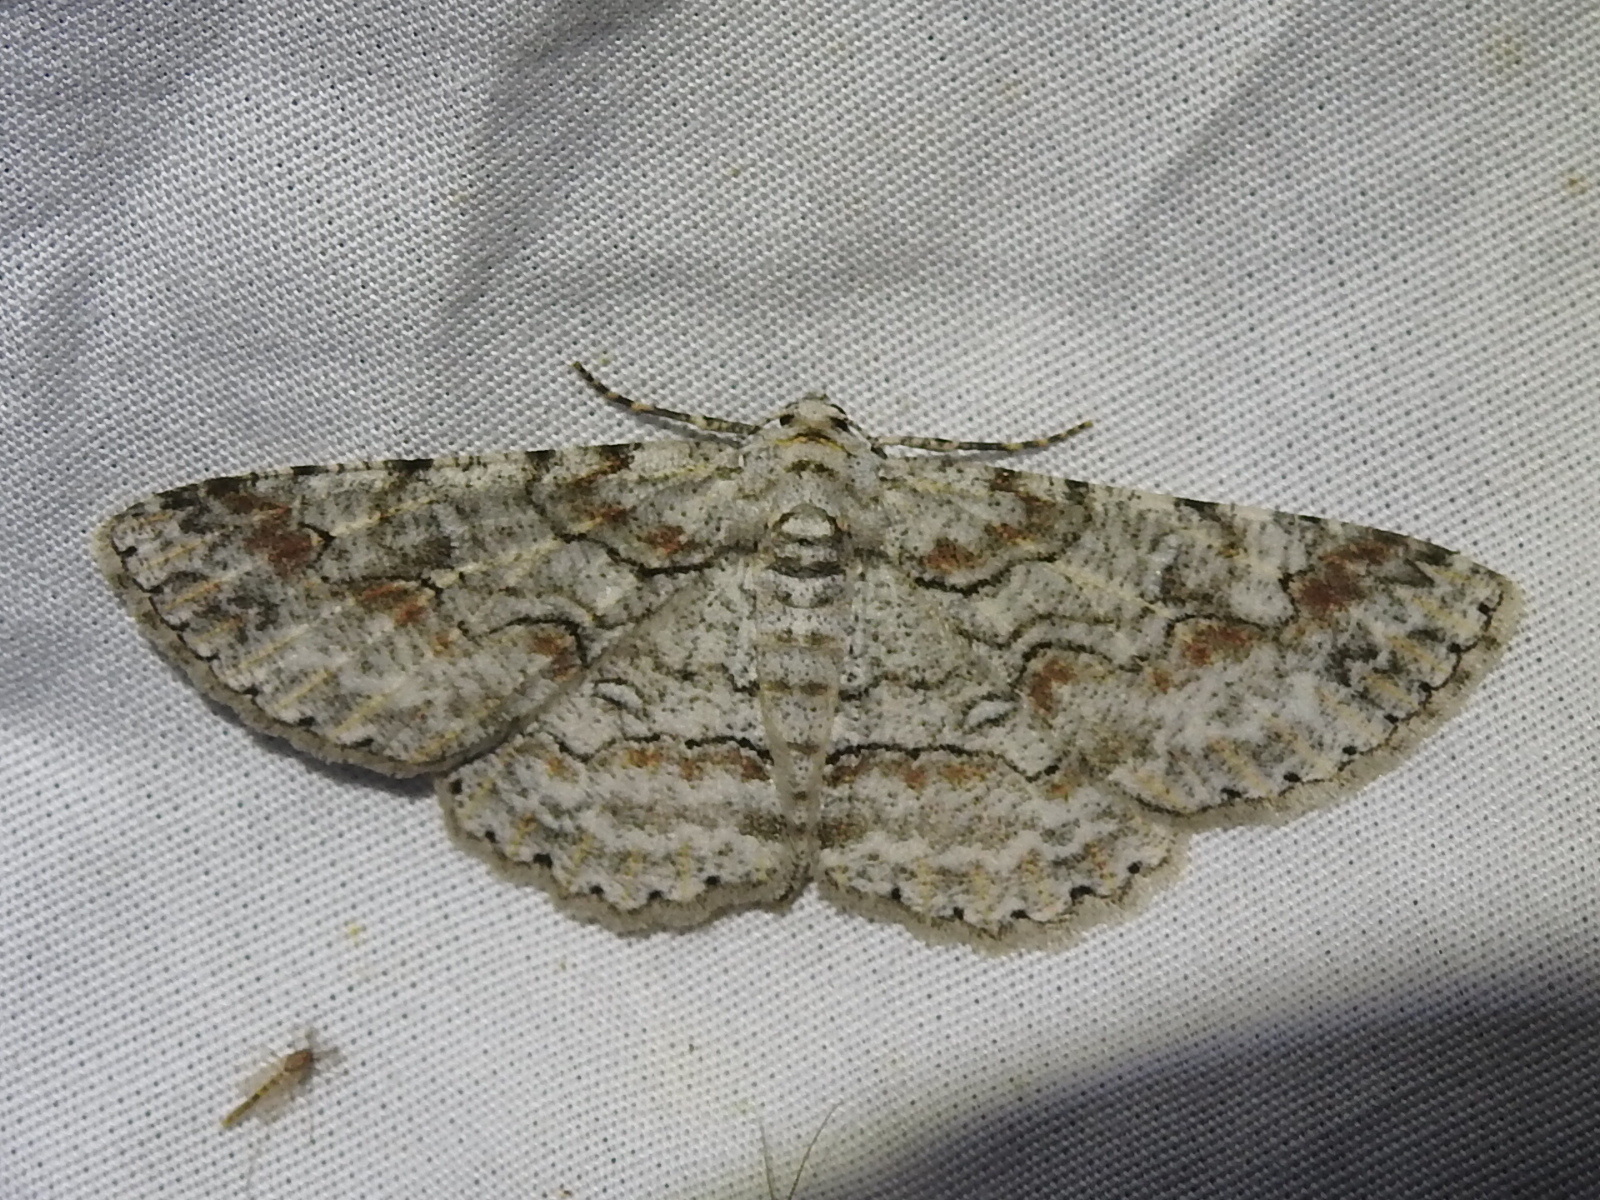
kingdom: Animalia
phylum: Arthropoda
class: Insecta
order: Lepidoptera
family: Geometridae
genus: Iridopsis
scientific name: Iridopsis defectaria
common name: Brown-shaded gray
